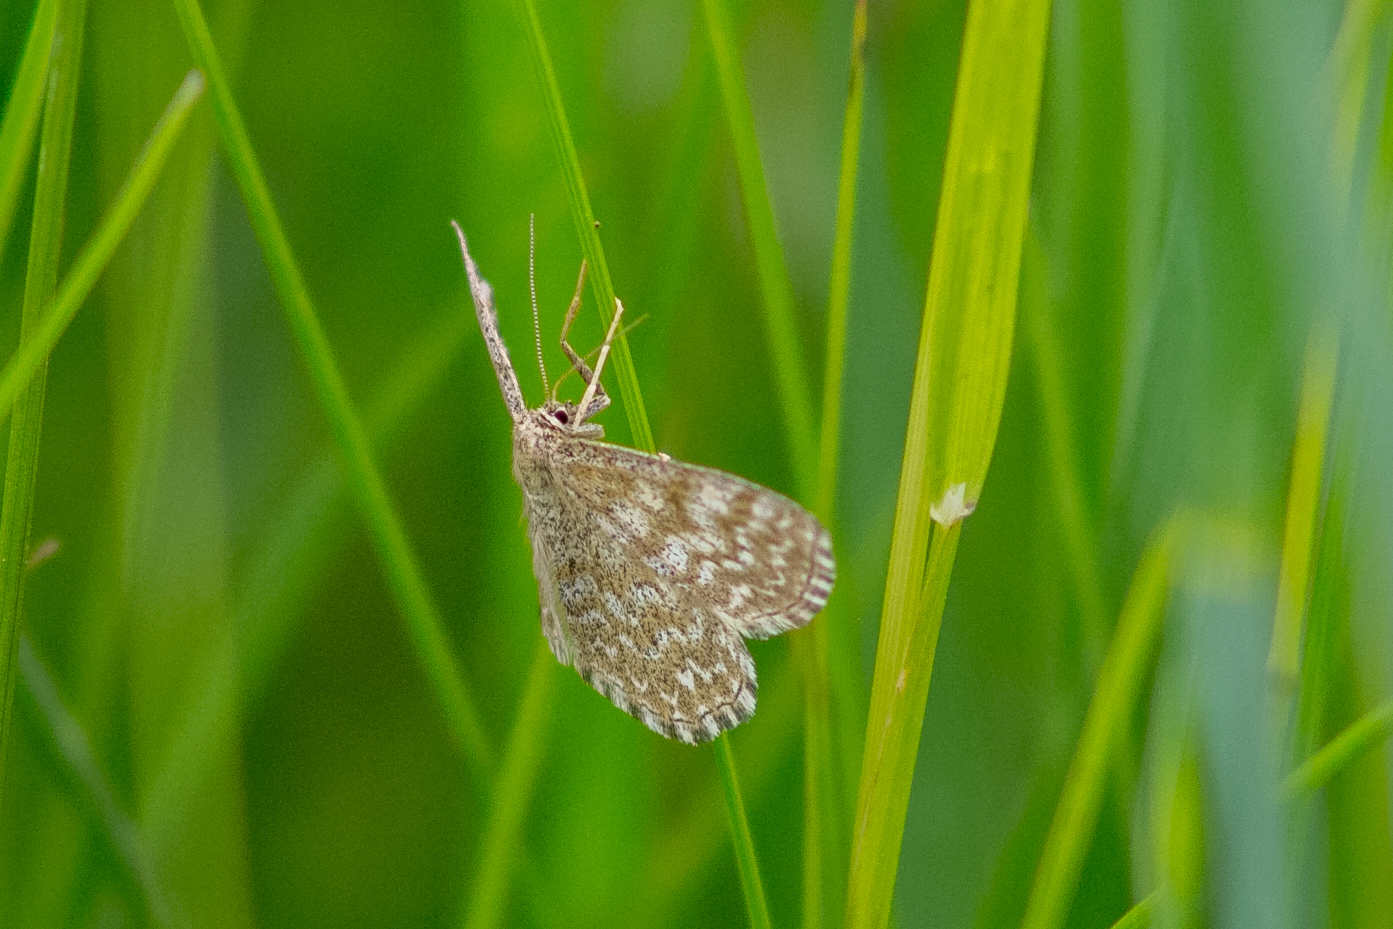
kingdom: Animalia
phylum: Arthropoda
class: Insecta
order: Lepidoptera
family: Geometridae
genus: Scopula
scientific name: Scopula immorata
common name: Lewes wave
